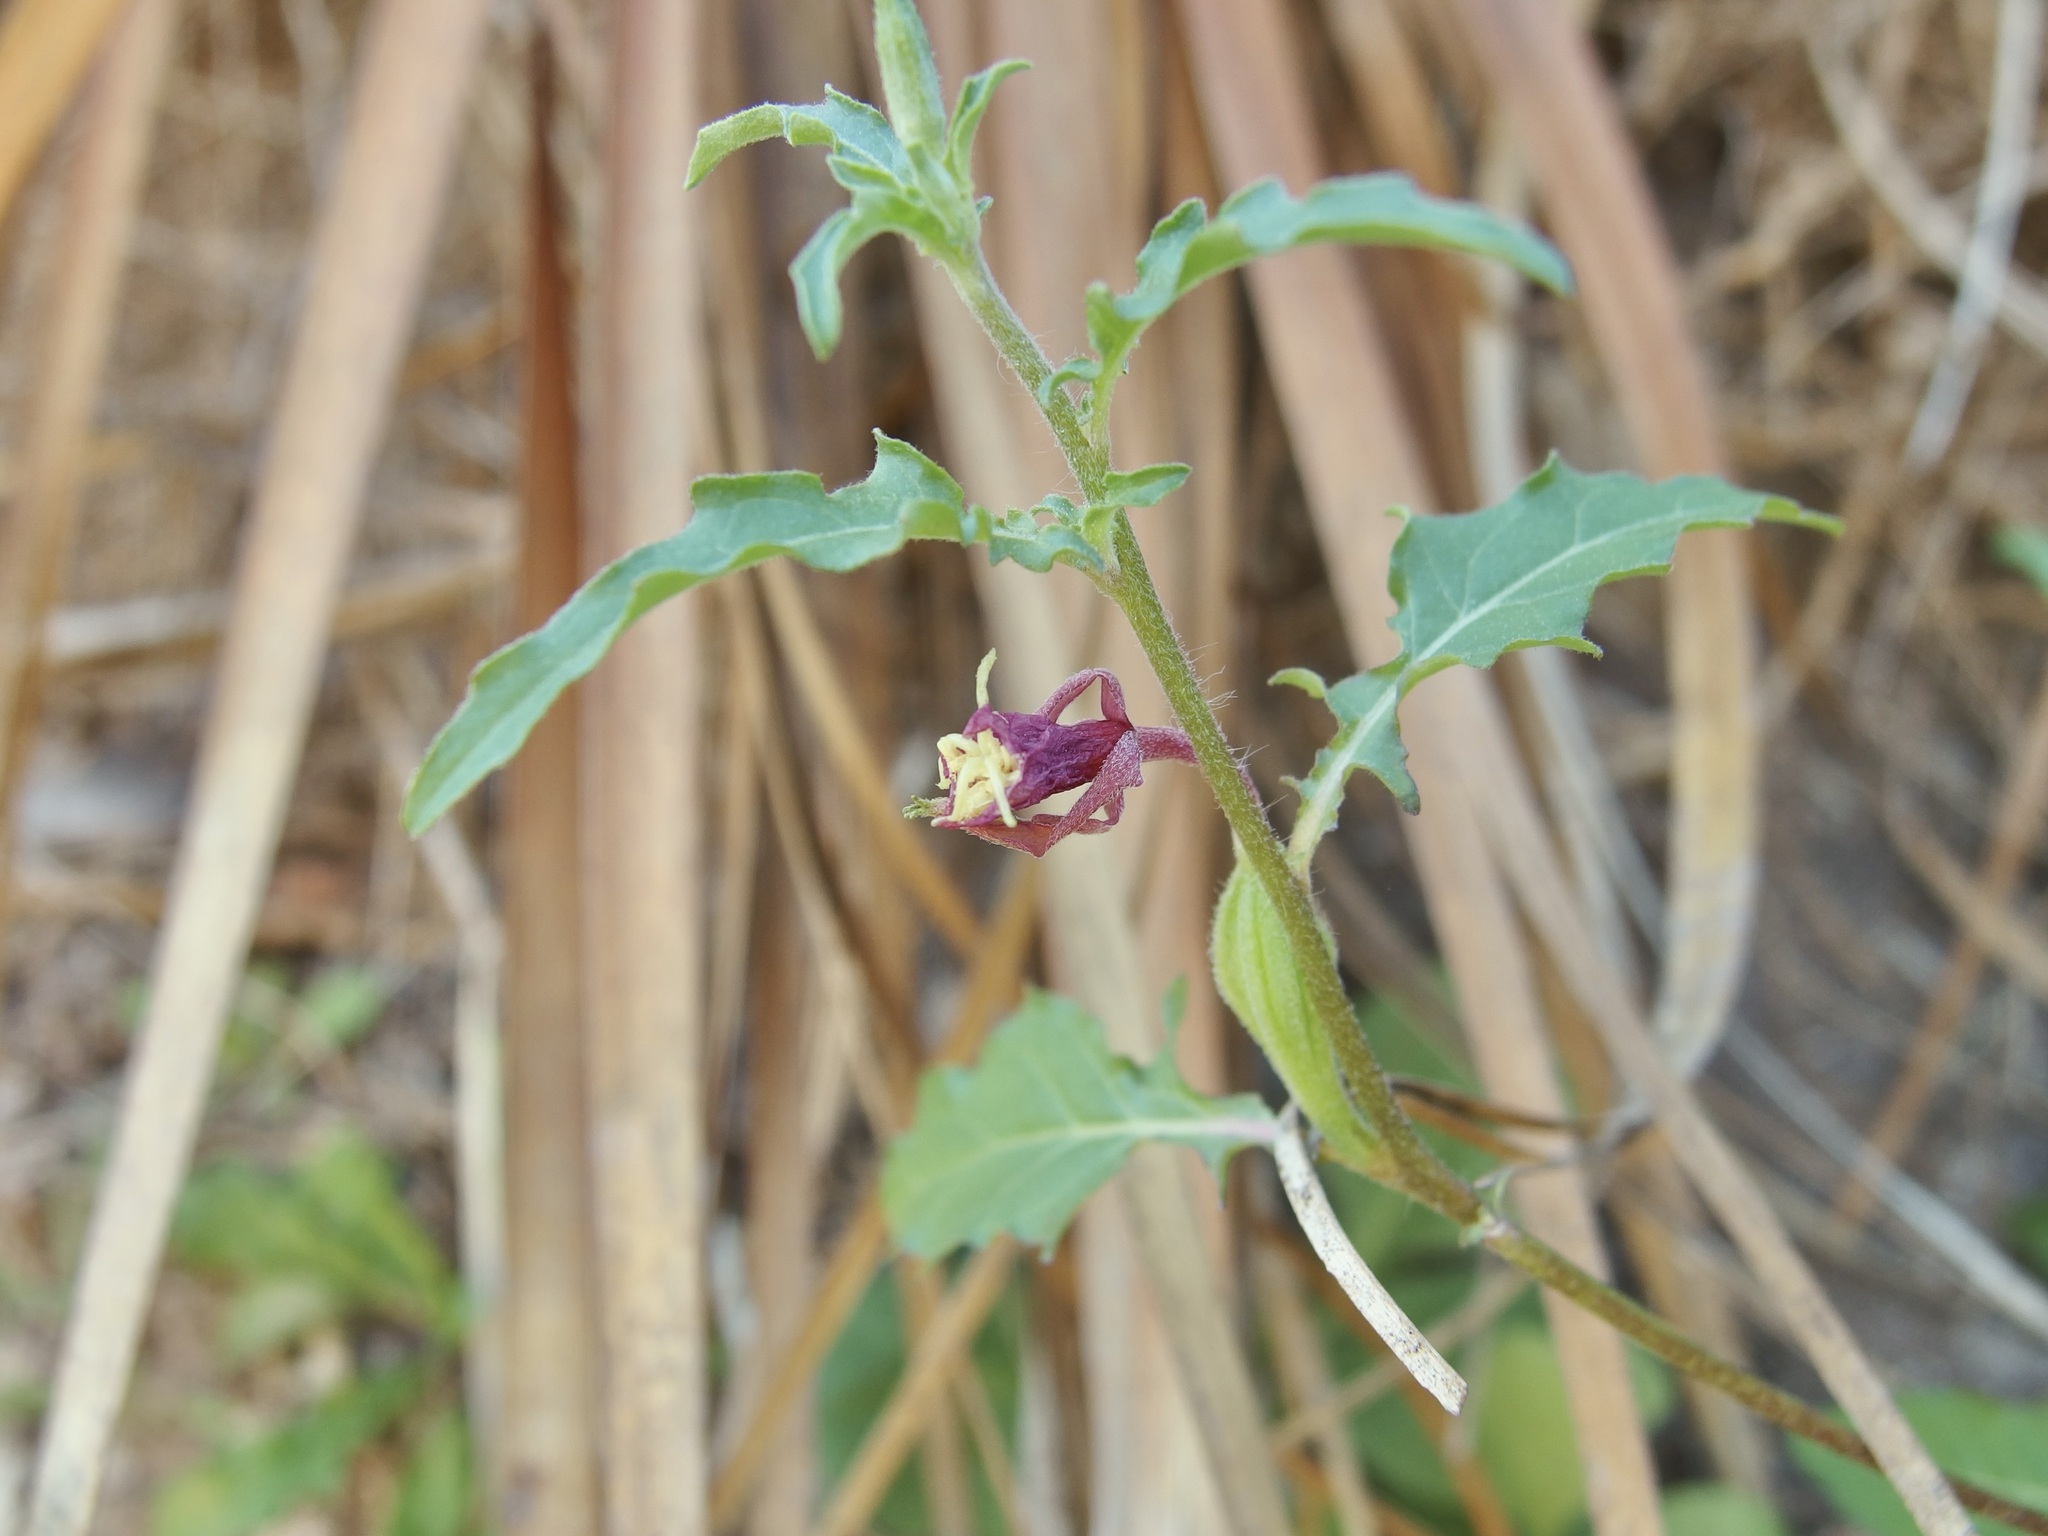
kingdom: Plantae
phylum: Tracheophyta
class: Magnoliopsida
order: Myrtales
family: Onagraceae
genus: Oenothera
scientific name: Oenothera kunthiana
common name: Kunth's evening-primrose
